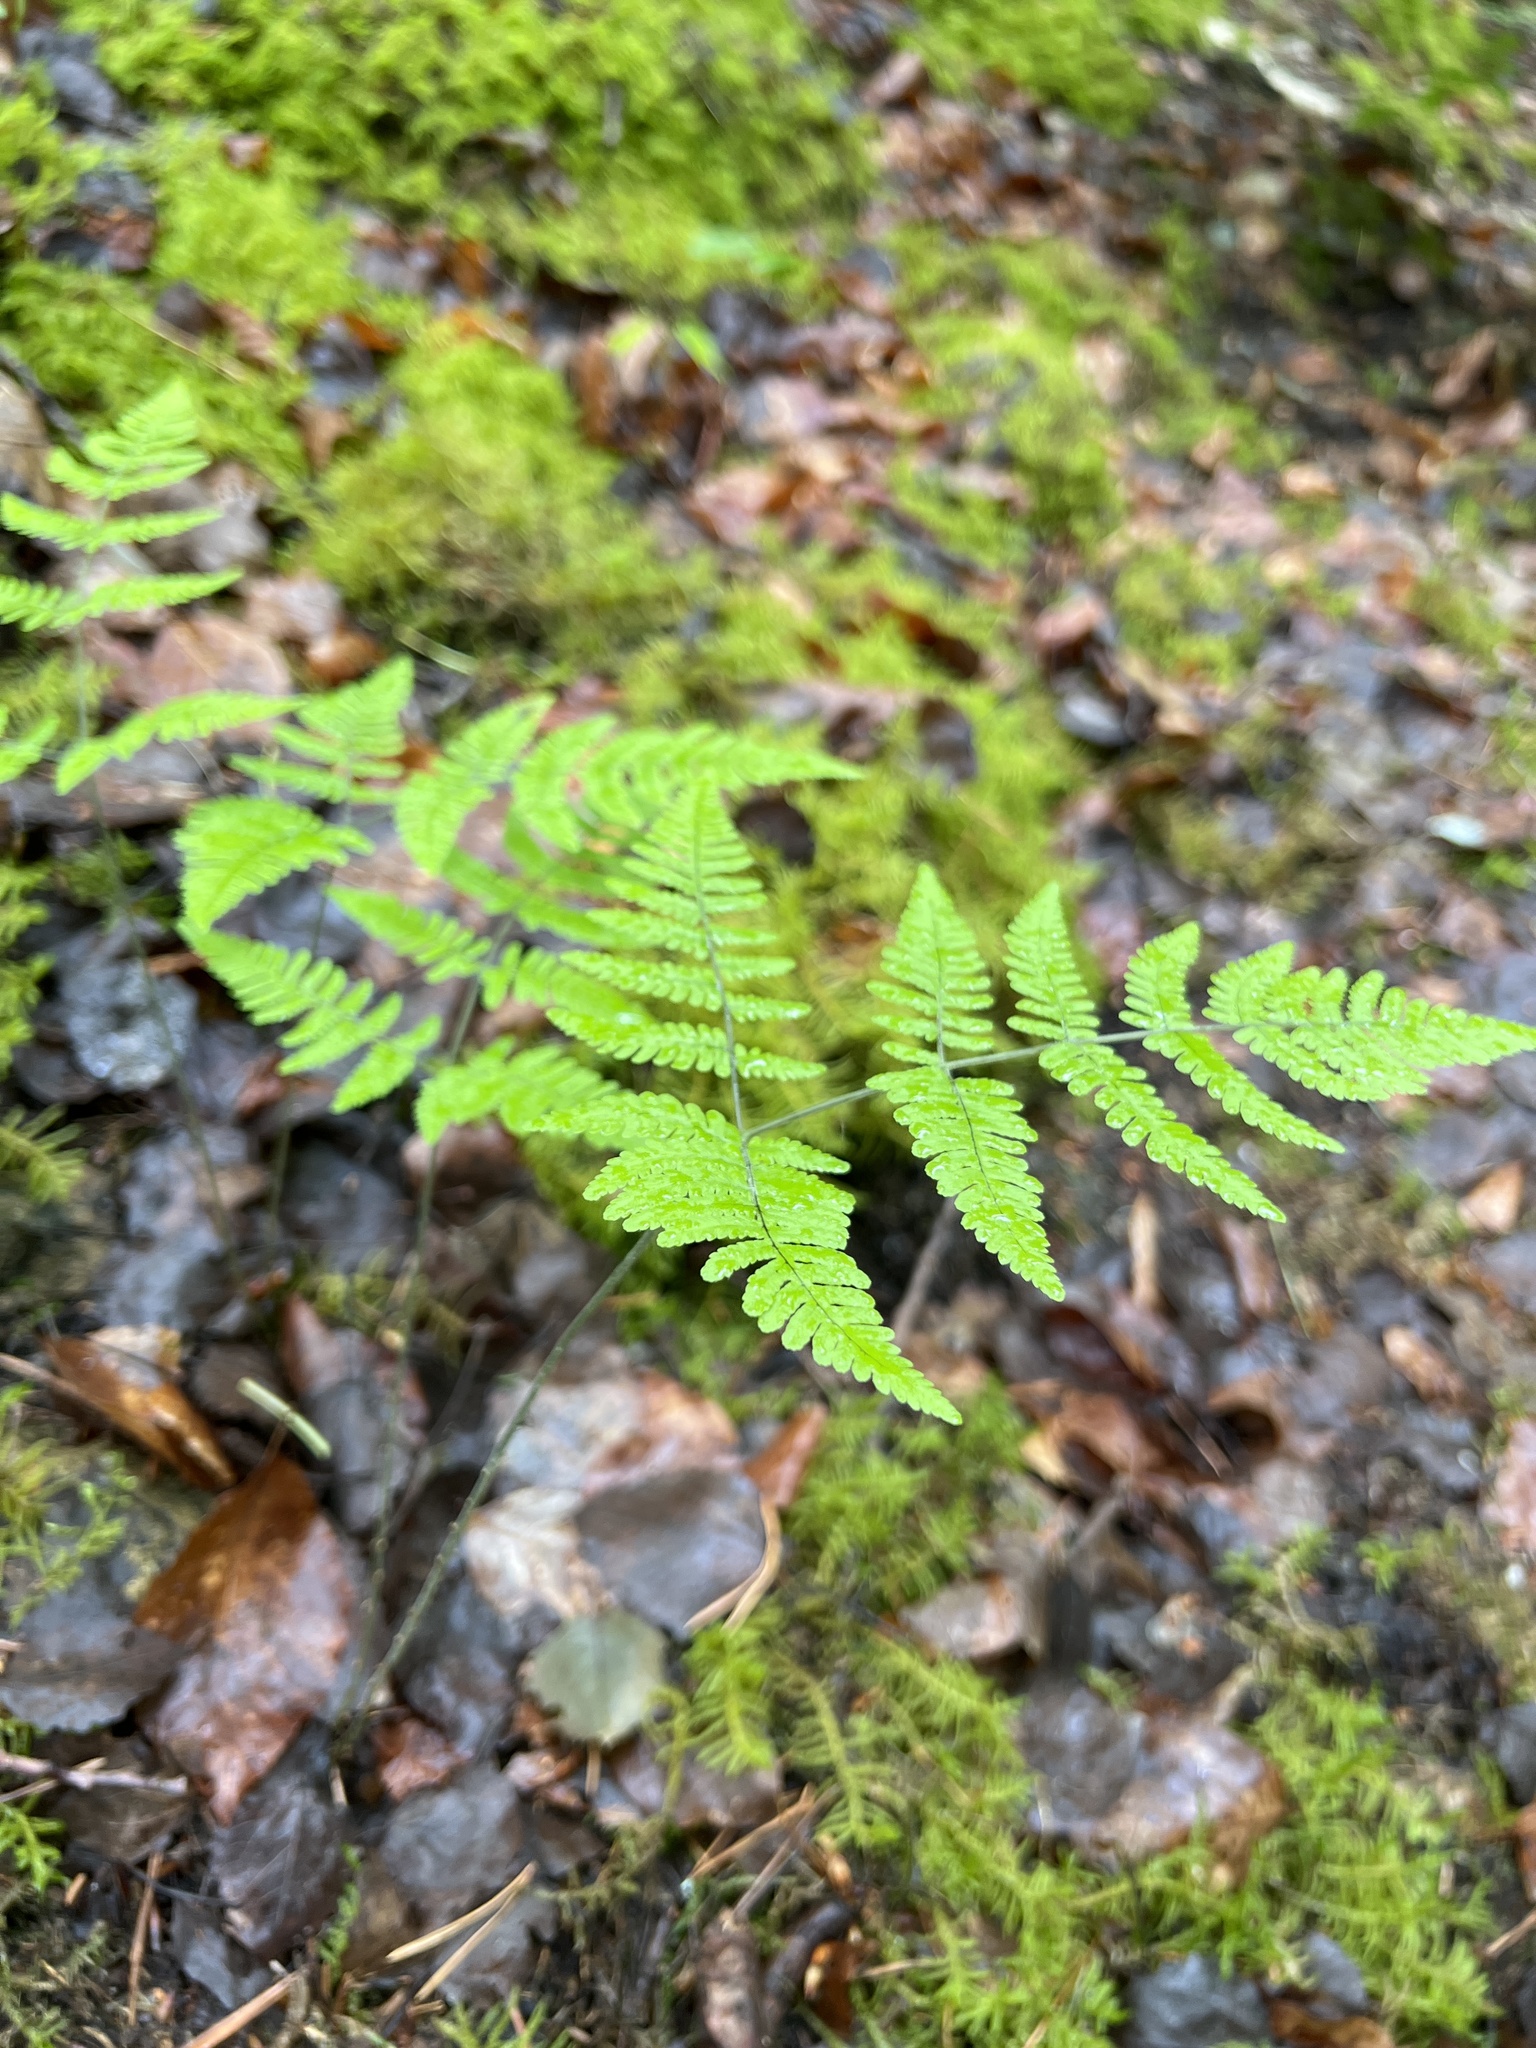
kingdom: Plantae
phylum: Tracheophyta
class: Polypodiopsida
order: Polypodiales
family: Cystopteridaceae
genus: Gymnocarpium
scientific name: Gymnocarpium robertianum
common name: Limestone fern
